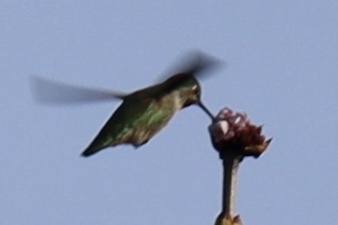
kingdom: Animalia
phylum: Chordata
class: Aves
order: Apodiformes
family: Trochilidae
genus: Calypte
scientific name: Calypte anna
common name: Anna's hummingbird
